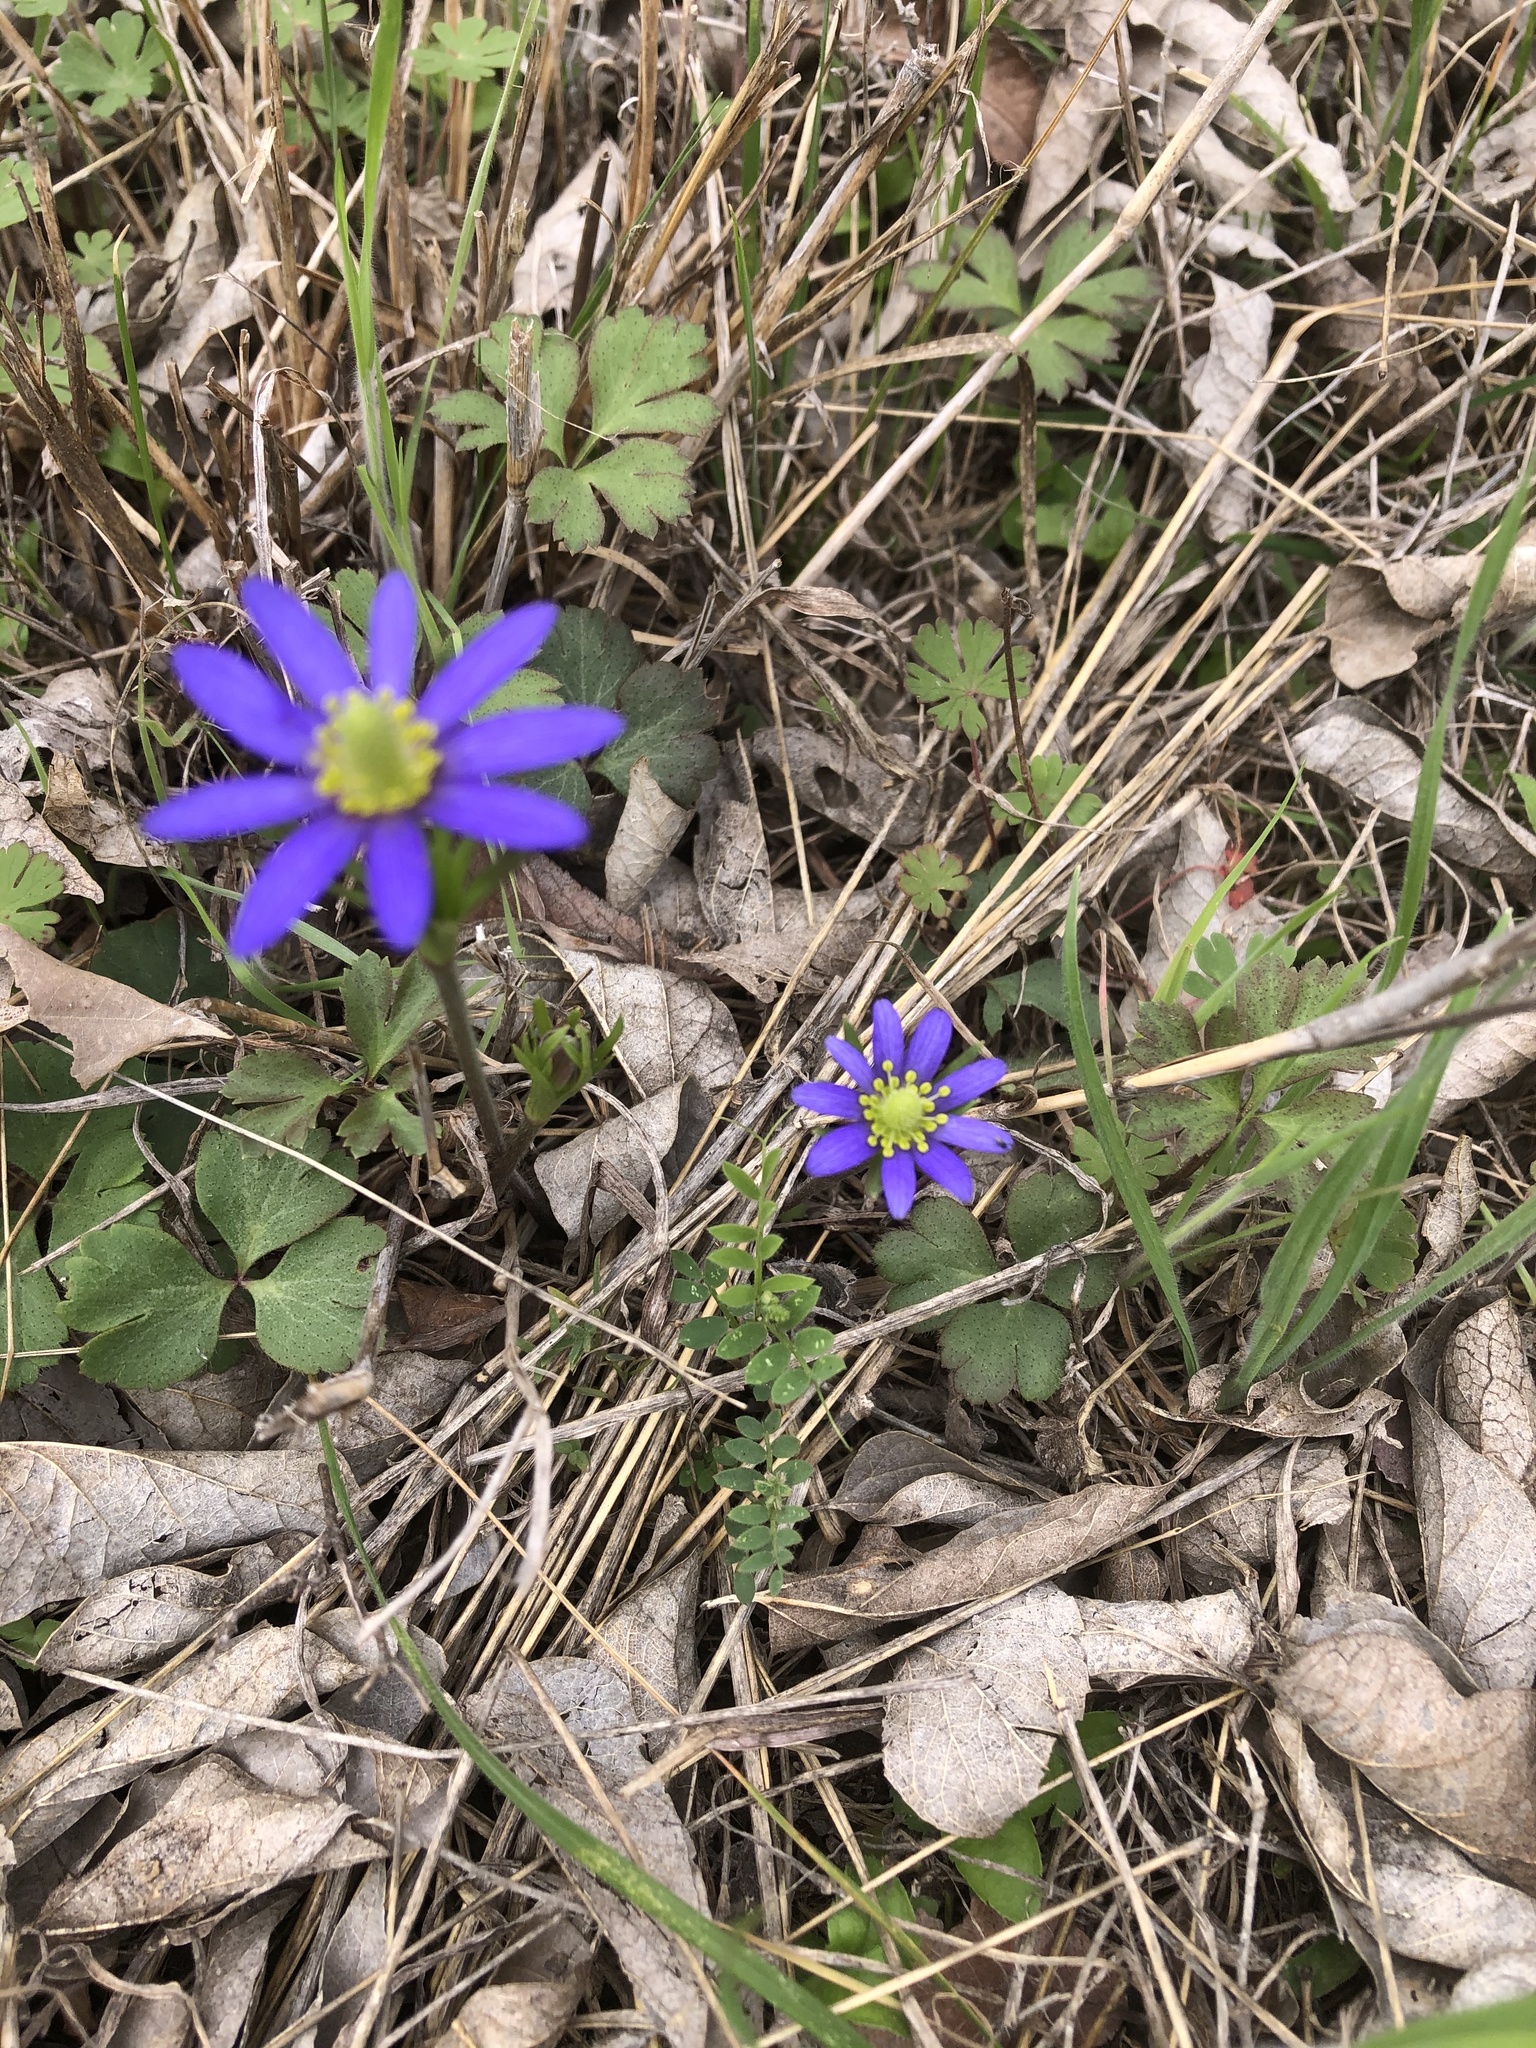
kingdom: Plantae
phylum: Tracheophyta
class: Magnoliopsida
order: Ranunculales
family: Ranunculaceae
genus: Anemone
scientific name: Anemone berlandieri
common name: Ten-petal anemone
